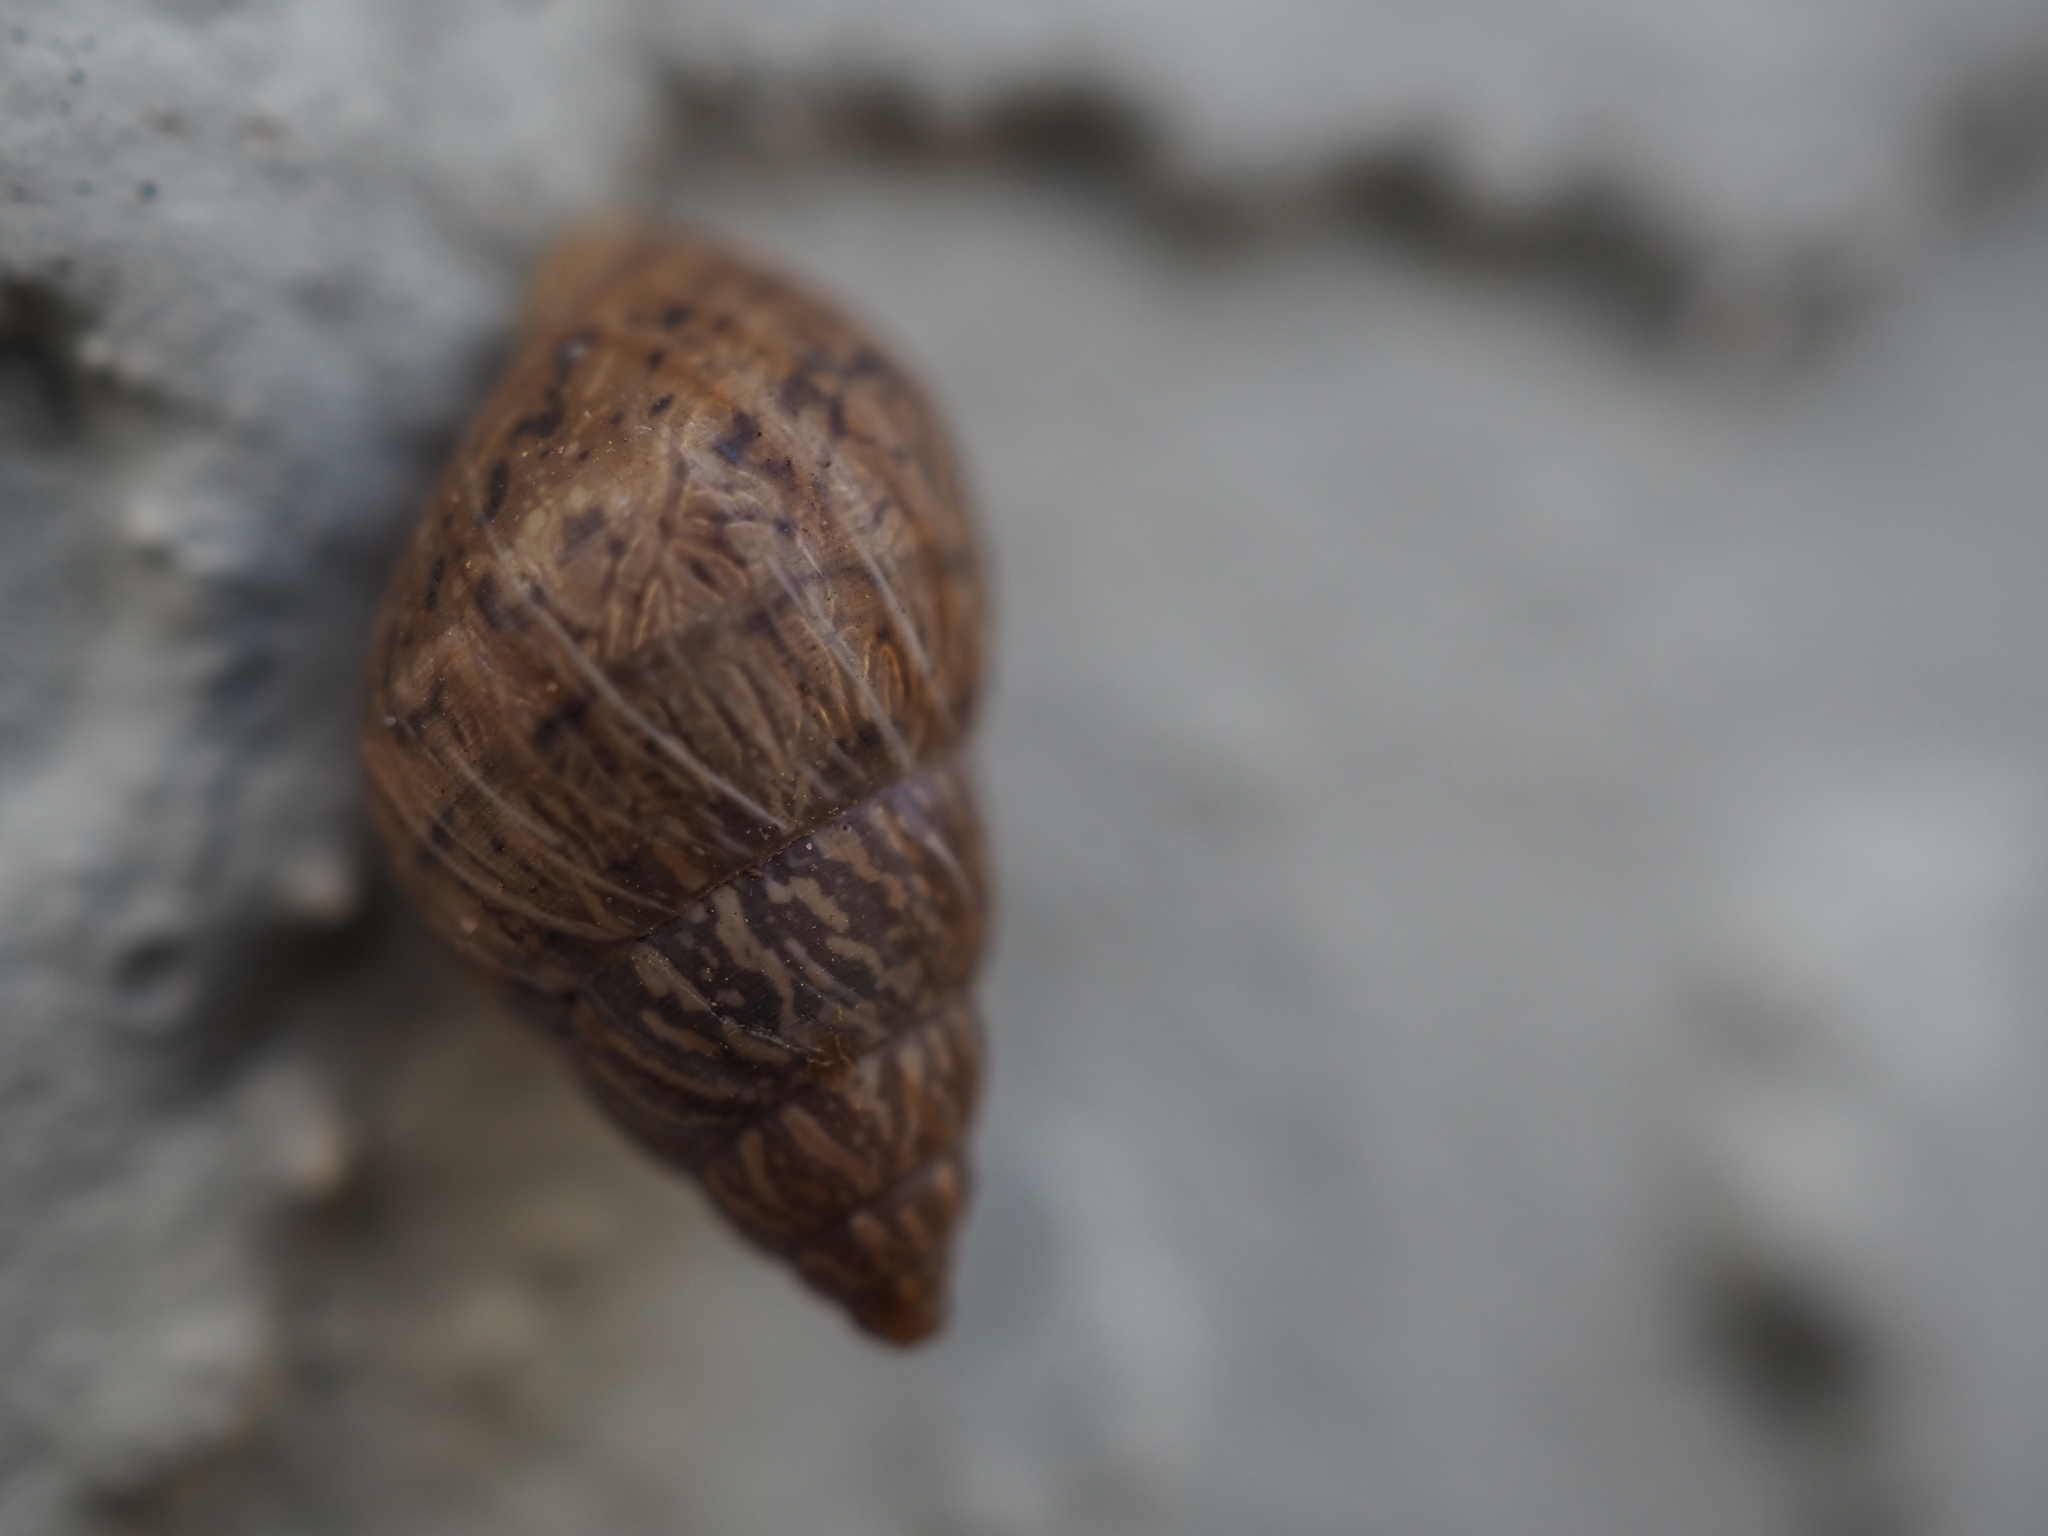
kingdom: Animalia
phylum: Mollusca
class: Gastropoda
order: Stylommatophora
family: Bulimulidae
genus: Bulimulus
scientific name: Bulimulus bonariensis
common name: Snail
